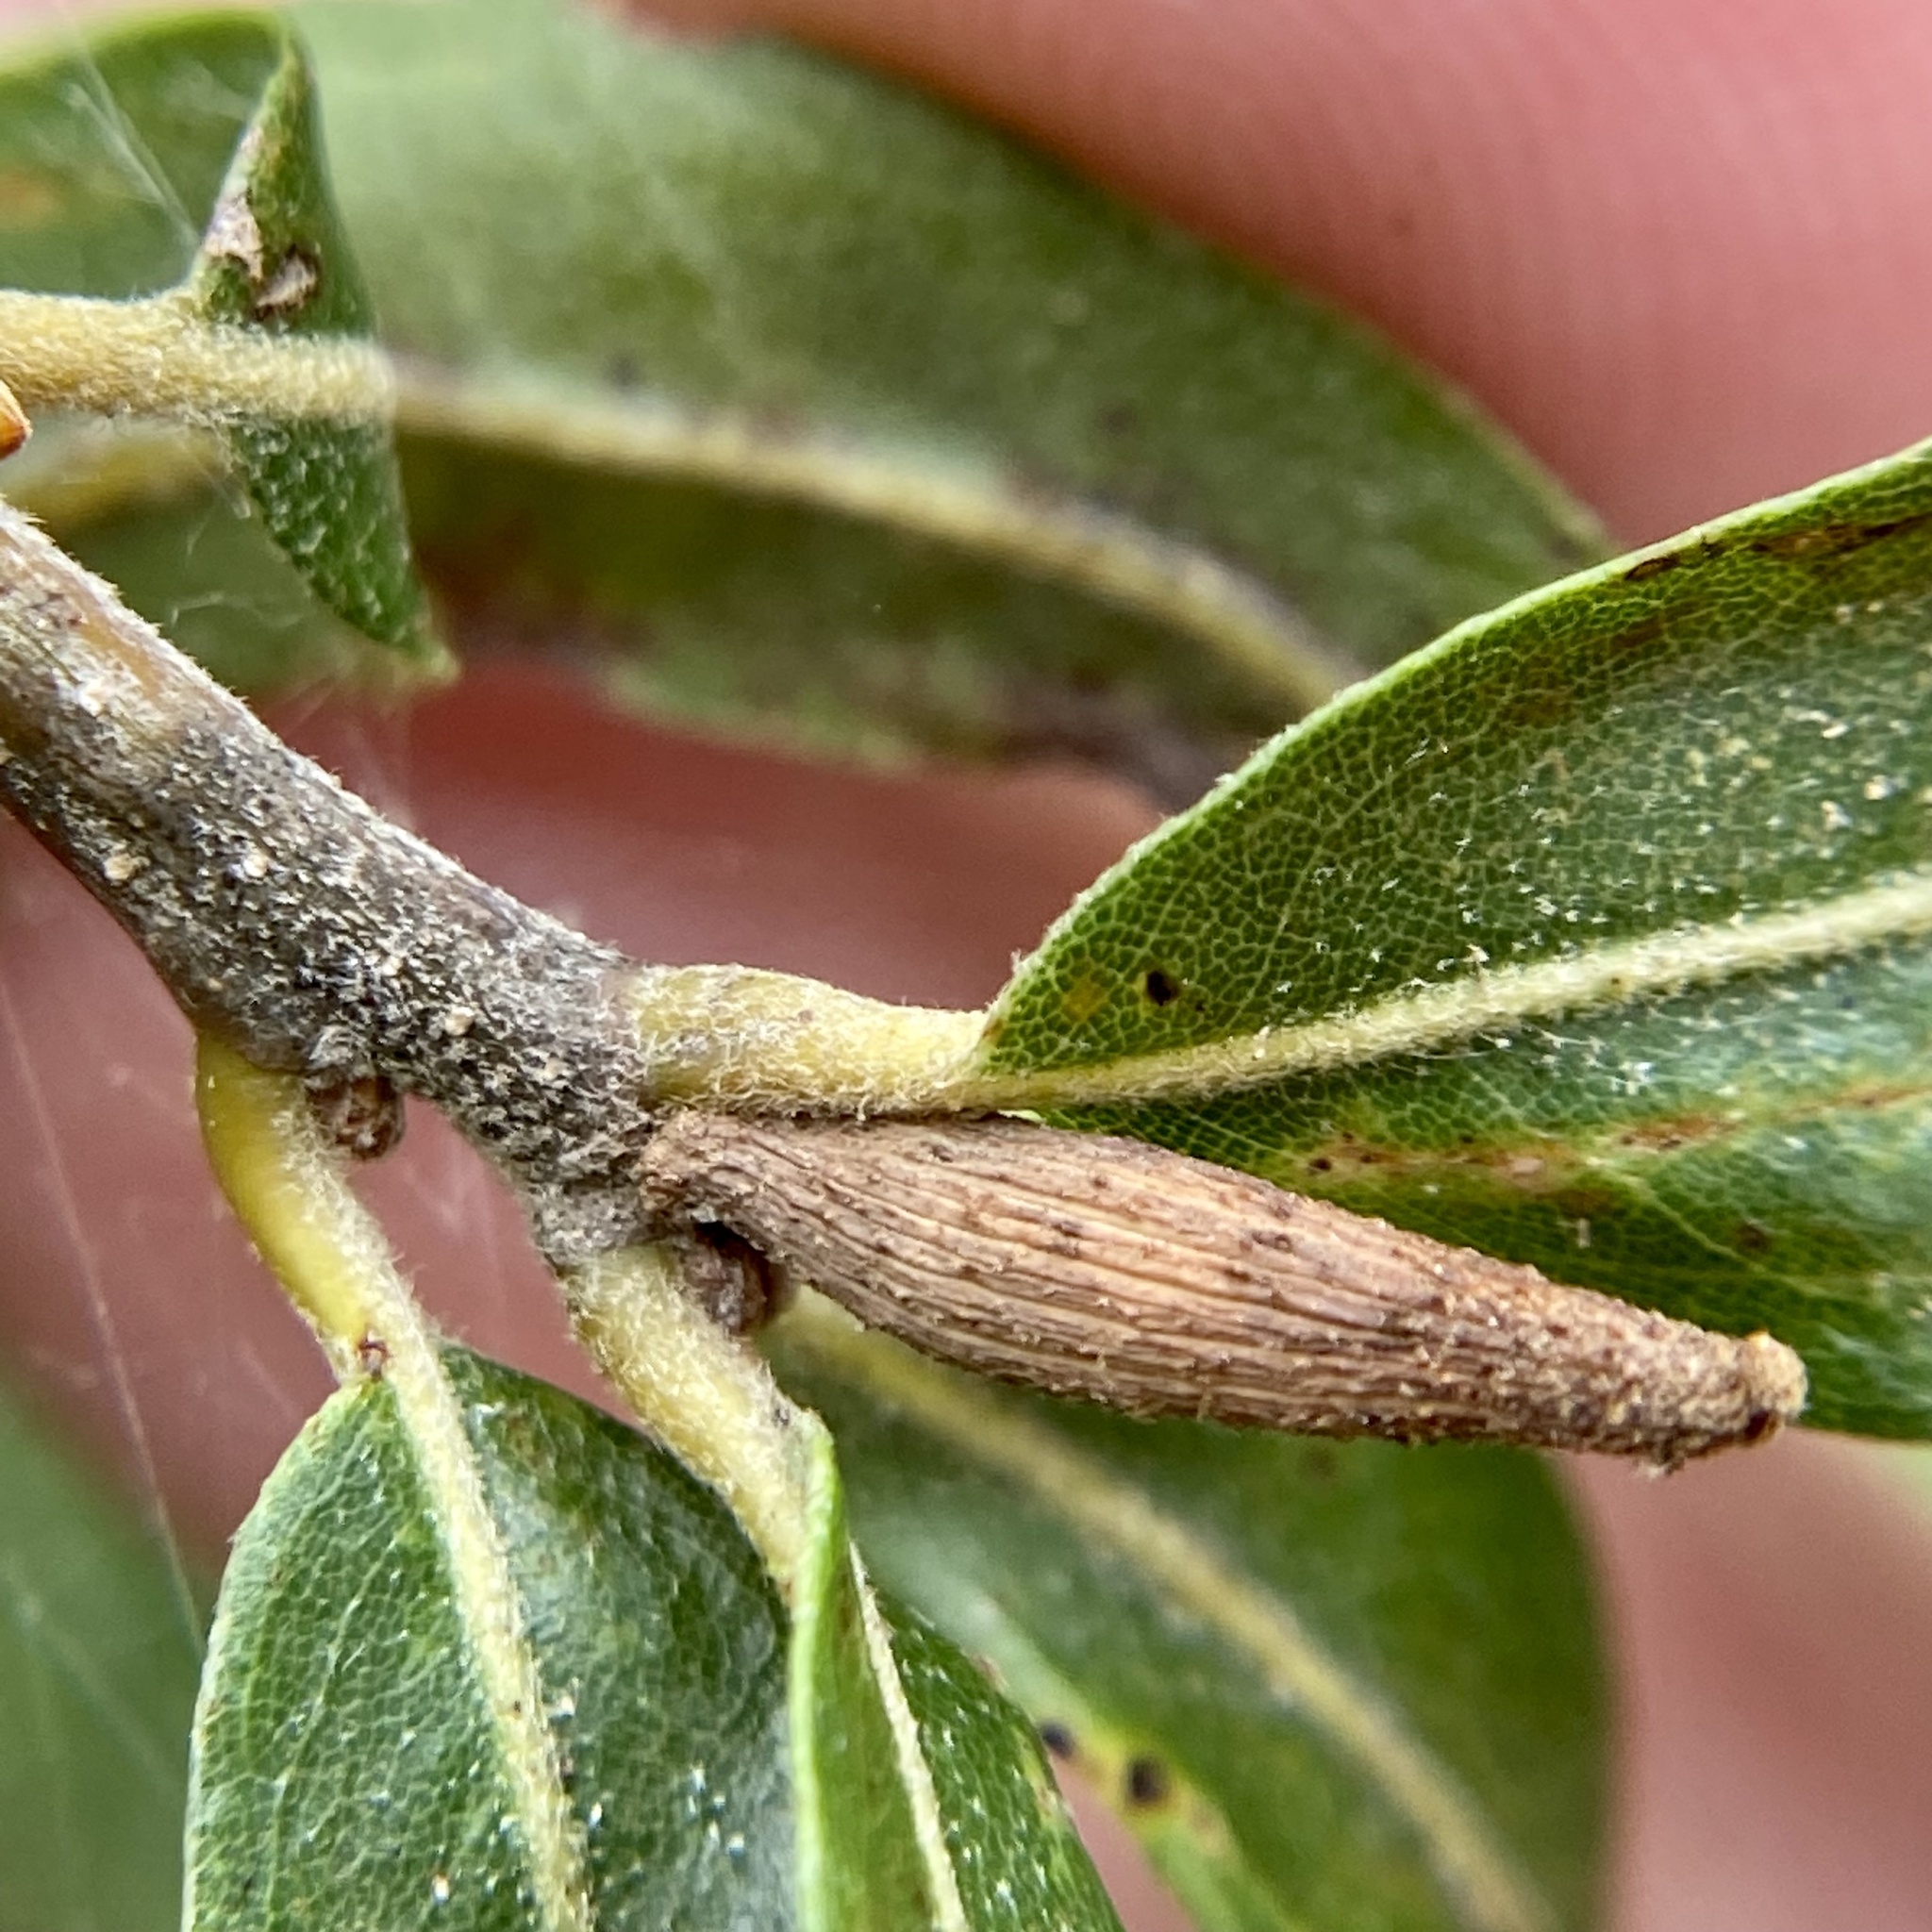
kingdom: Animalia
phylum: Arthropoda
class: Insecta
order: Hymenoptera
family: Cynipidae
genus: Eumayria
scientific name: Eumayria
